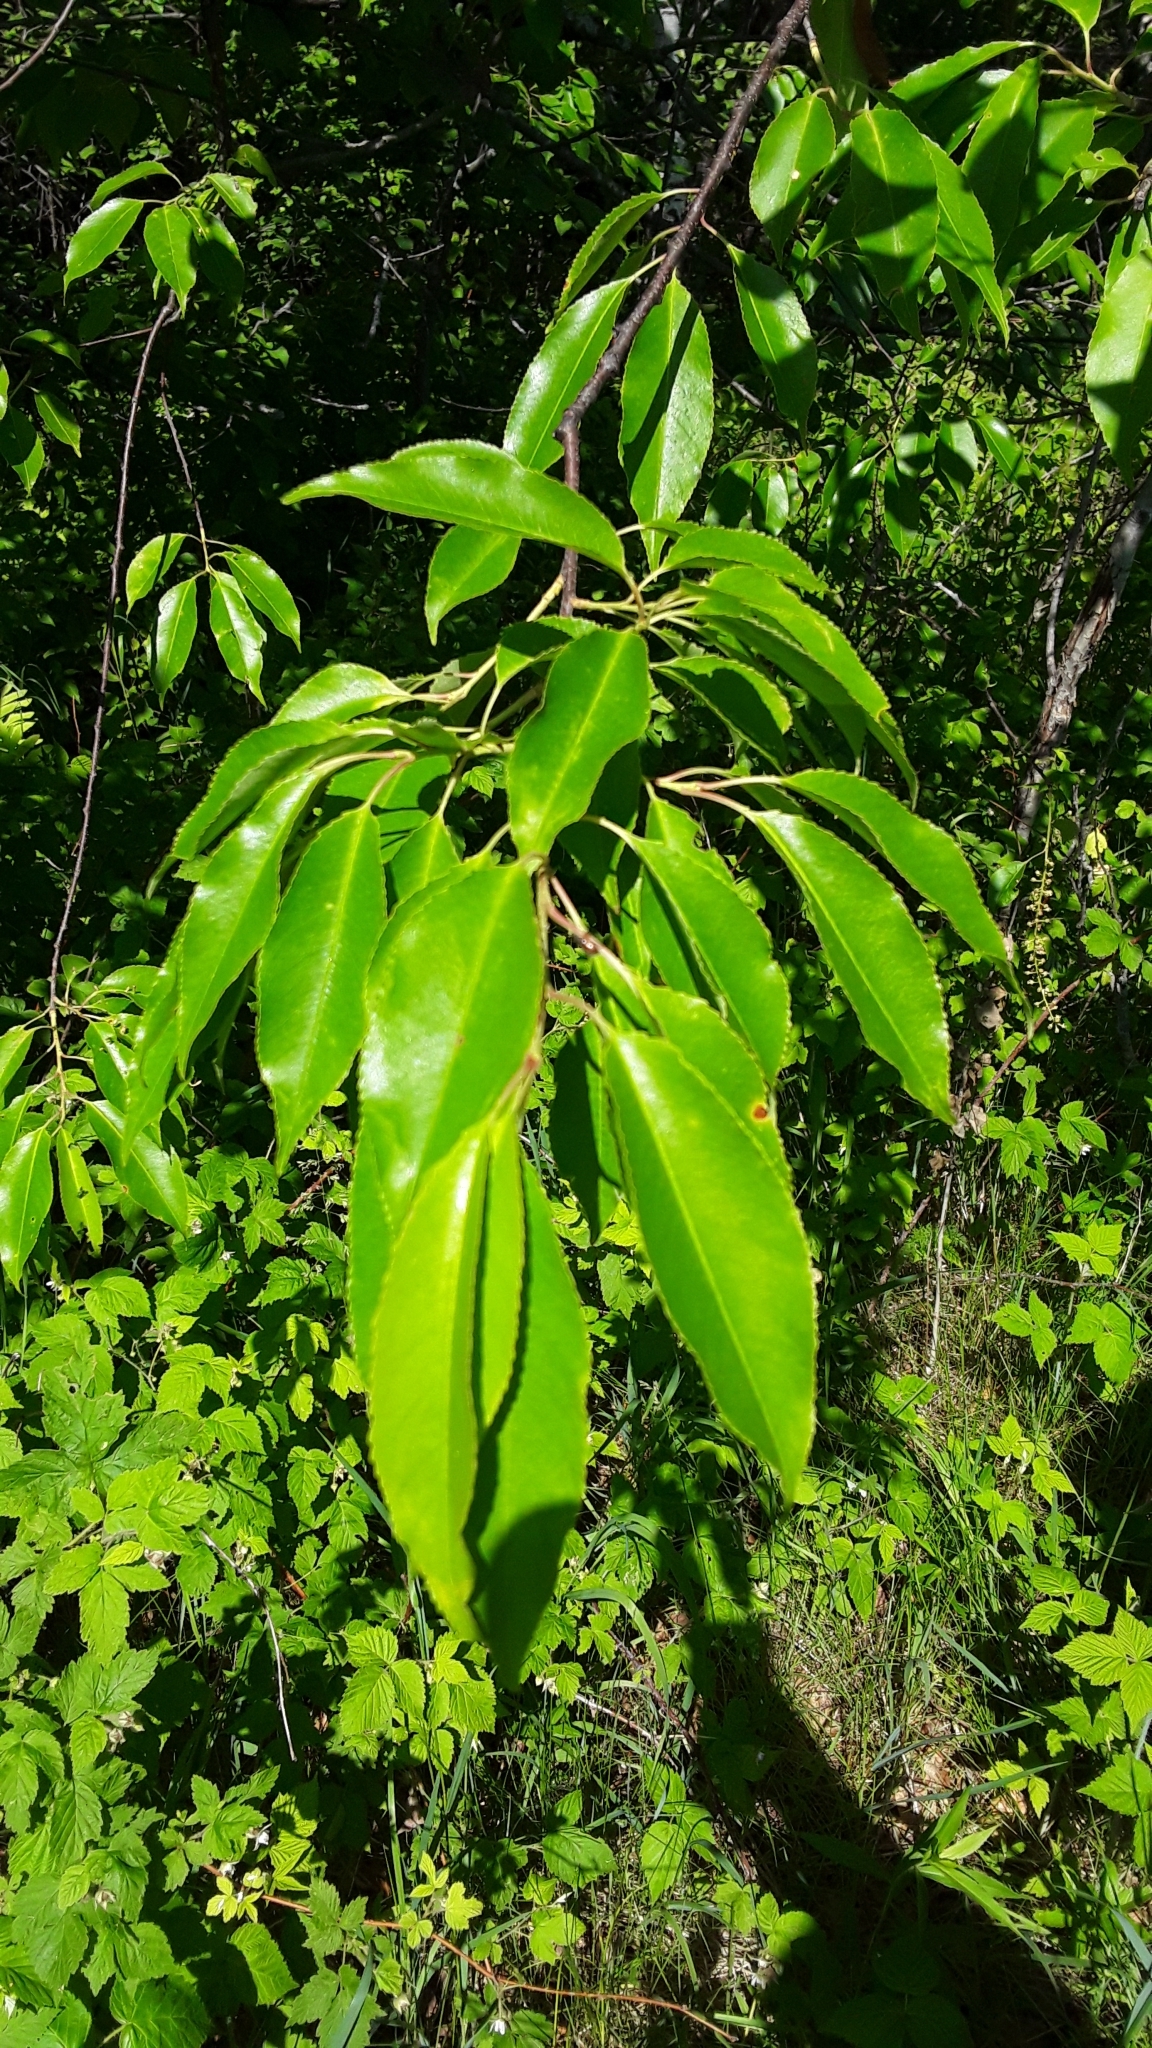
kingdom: Plantae
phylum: Tracheophyta
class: Magnoliopsida
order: Rosales
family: Rosaceae
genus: Prunus
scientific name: Prunus serotina
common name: Black cherry
